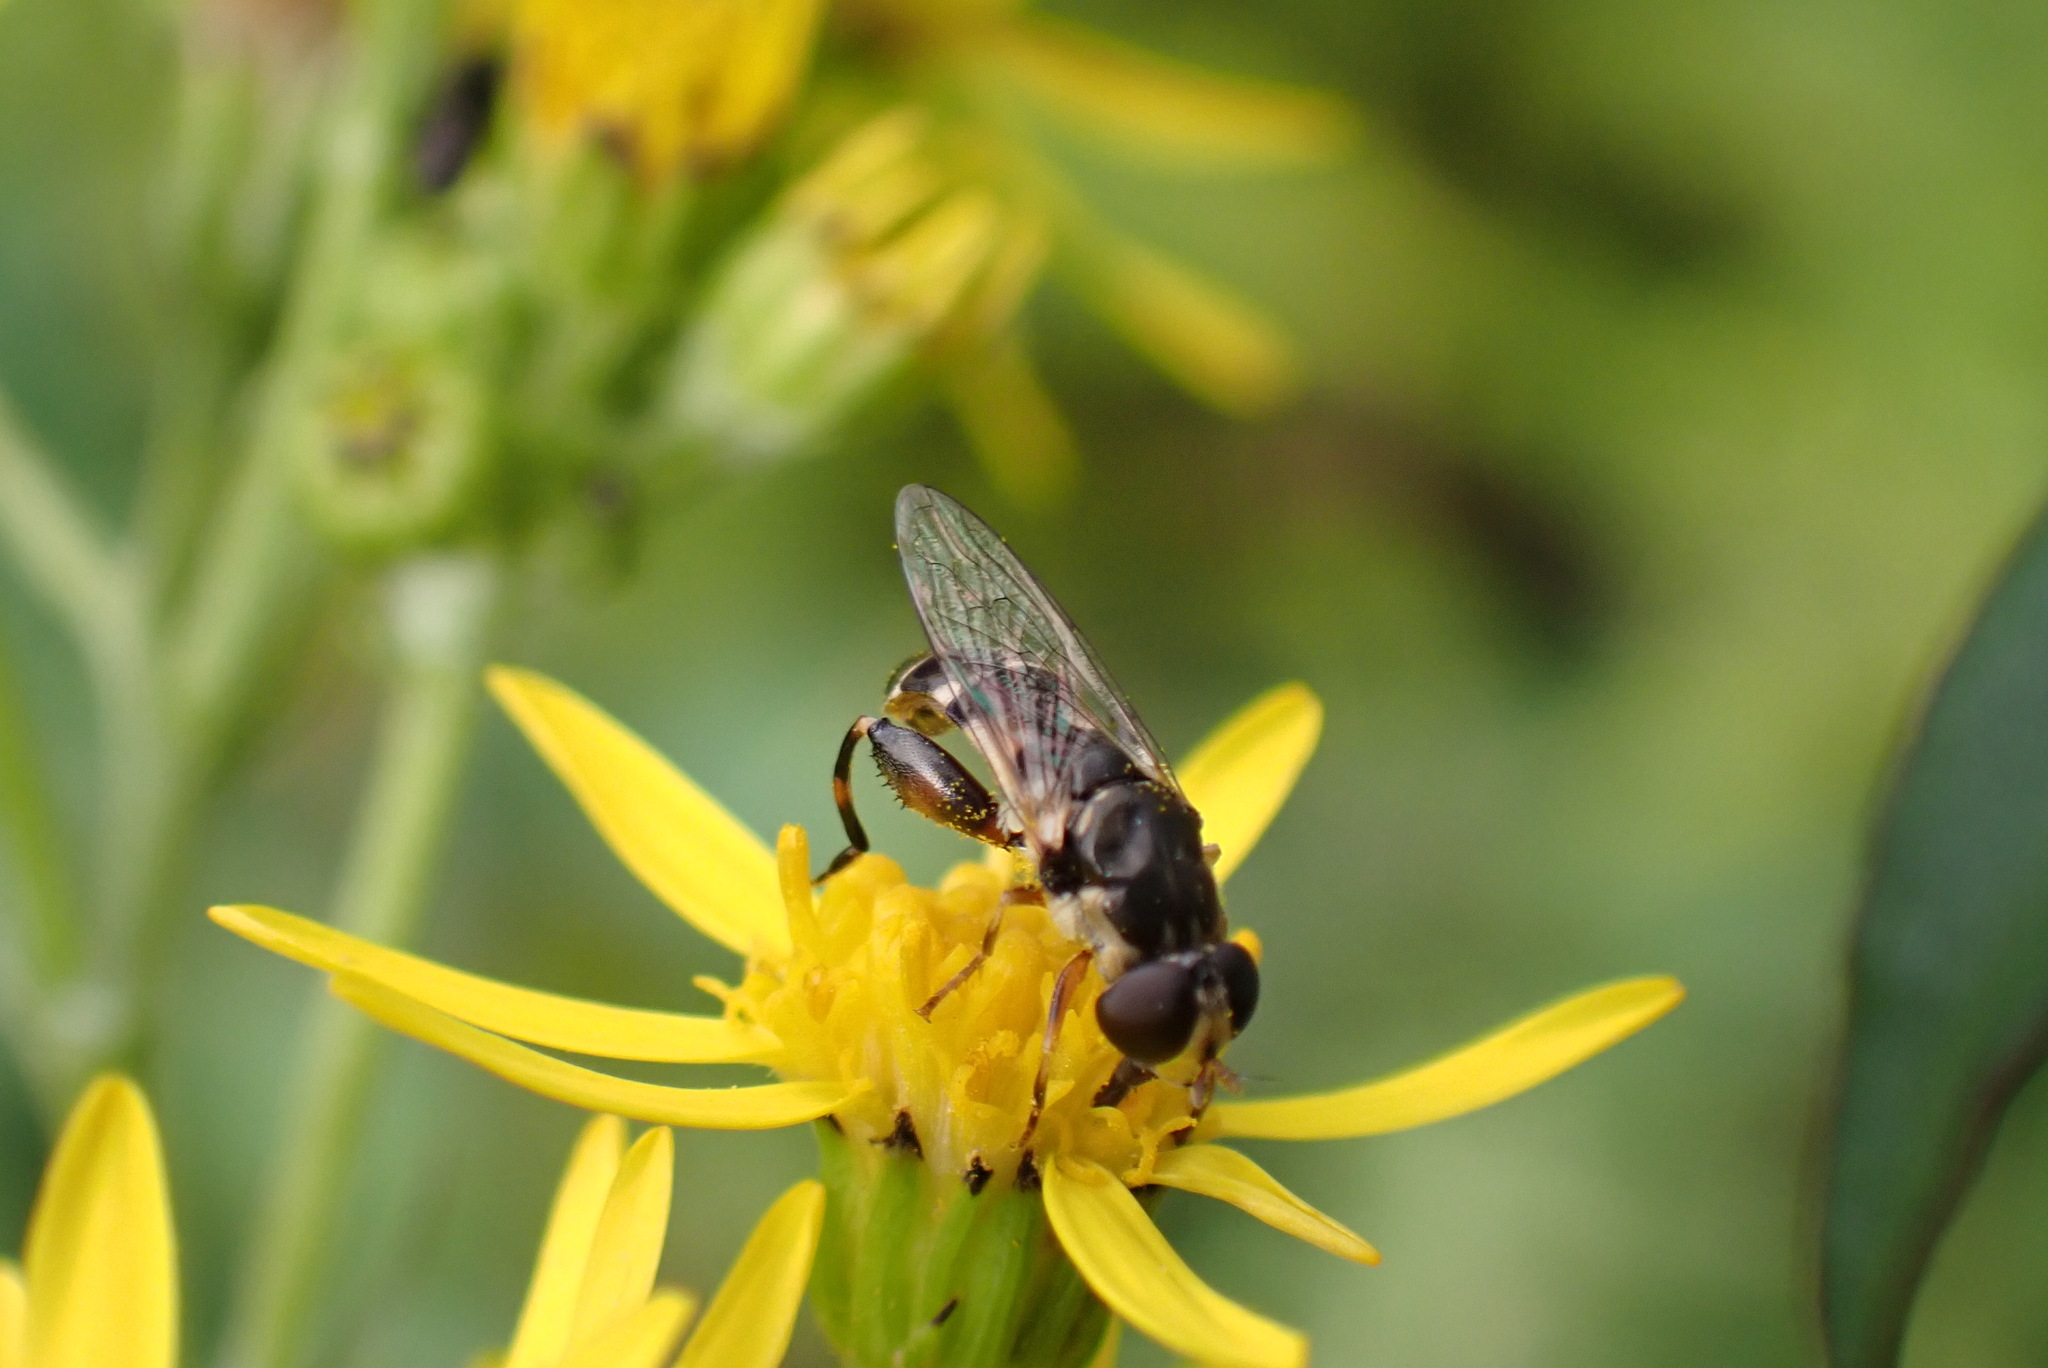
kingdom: Animalia
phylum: Arthropoda
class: Insecta
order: Diptera
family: Syrphidae
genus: Syritta
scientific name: Syritta pipiens
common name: Hover fly
